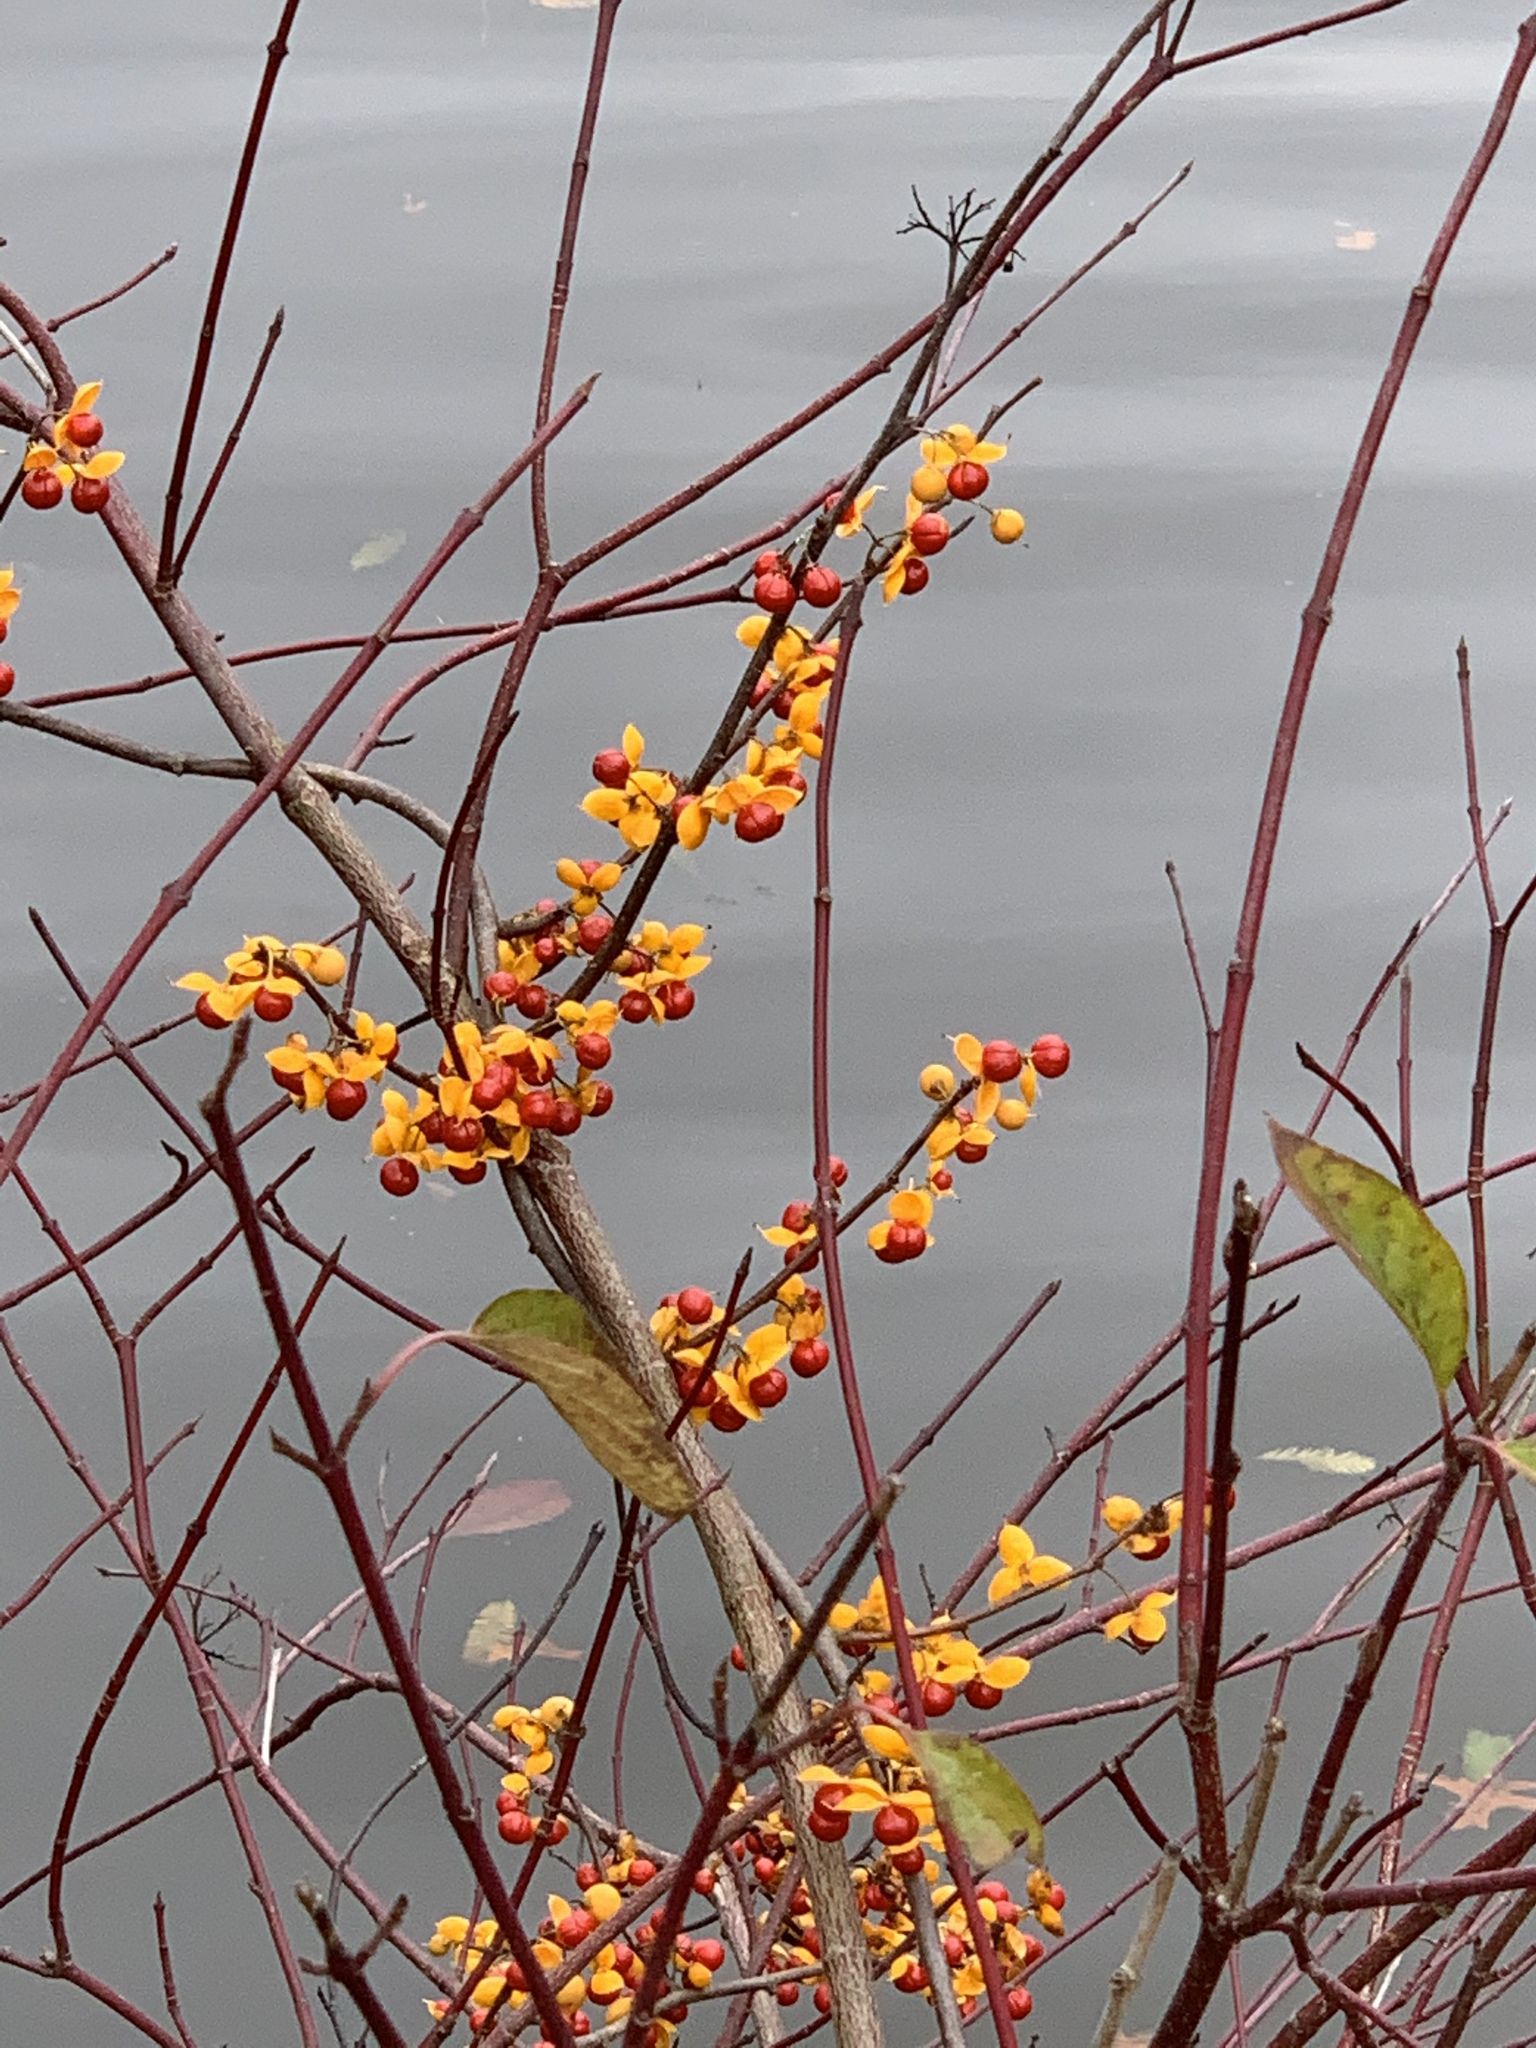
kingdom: Plantae
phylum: Tracheophyta
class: Magnoliopsida
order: Celastrales
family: Celastraceae
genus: Celastrus
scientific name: Celastrus orbiculatus
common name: Oriental bittersweet
